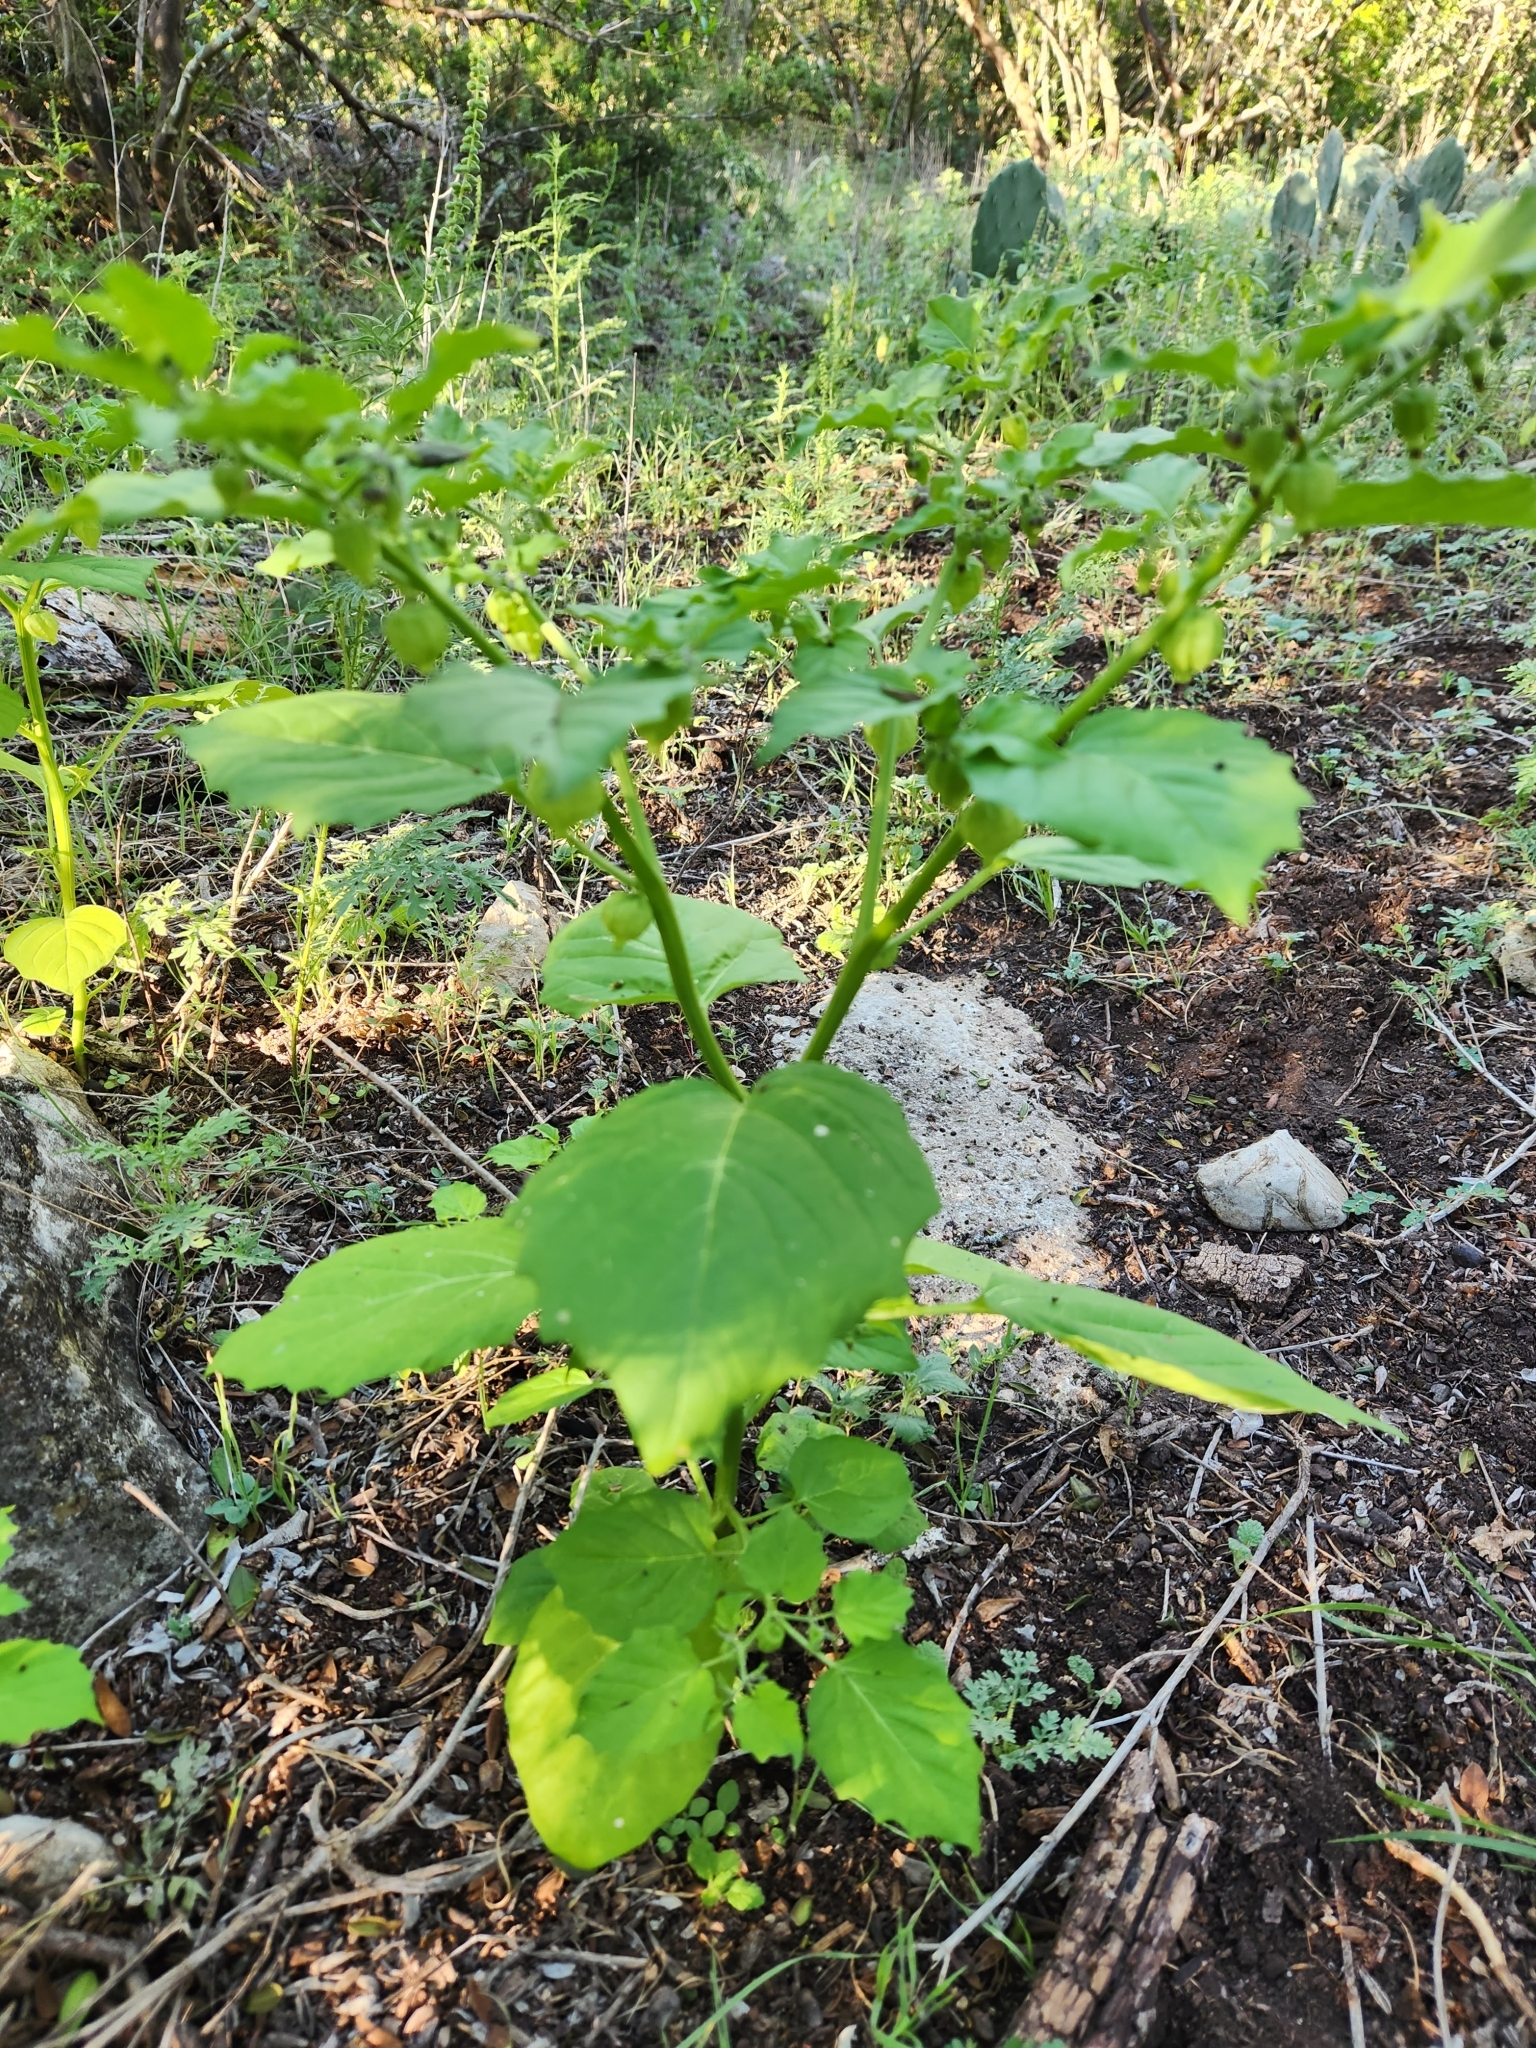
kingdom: Plantae
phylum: Tracheophyta
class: Magnoliopsida
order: Solanales
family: Solanaceae
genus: Physalis
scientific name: Physalis solanacea
